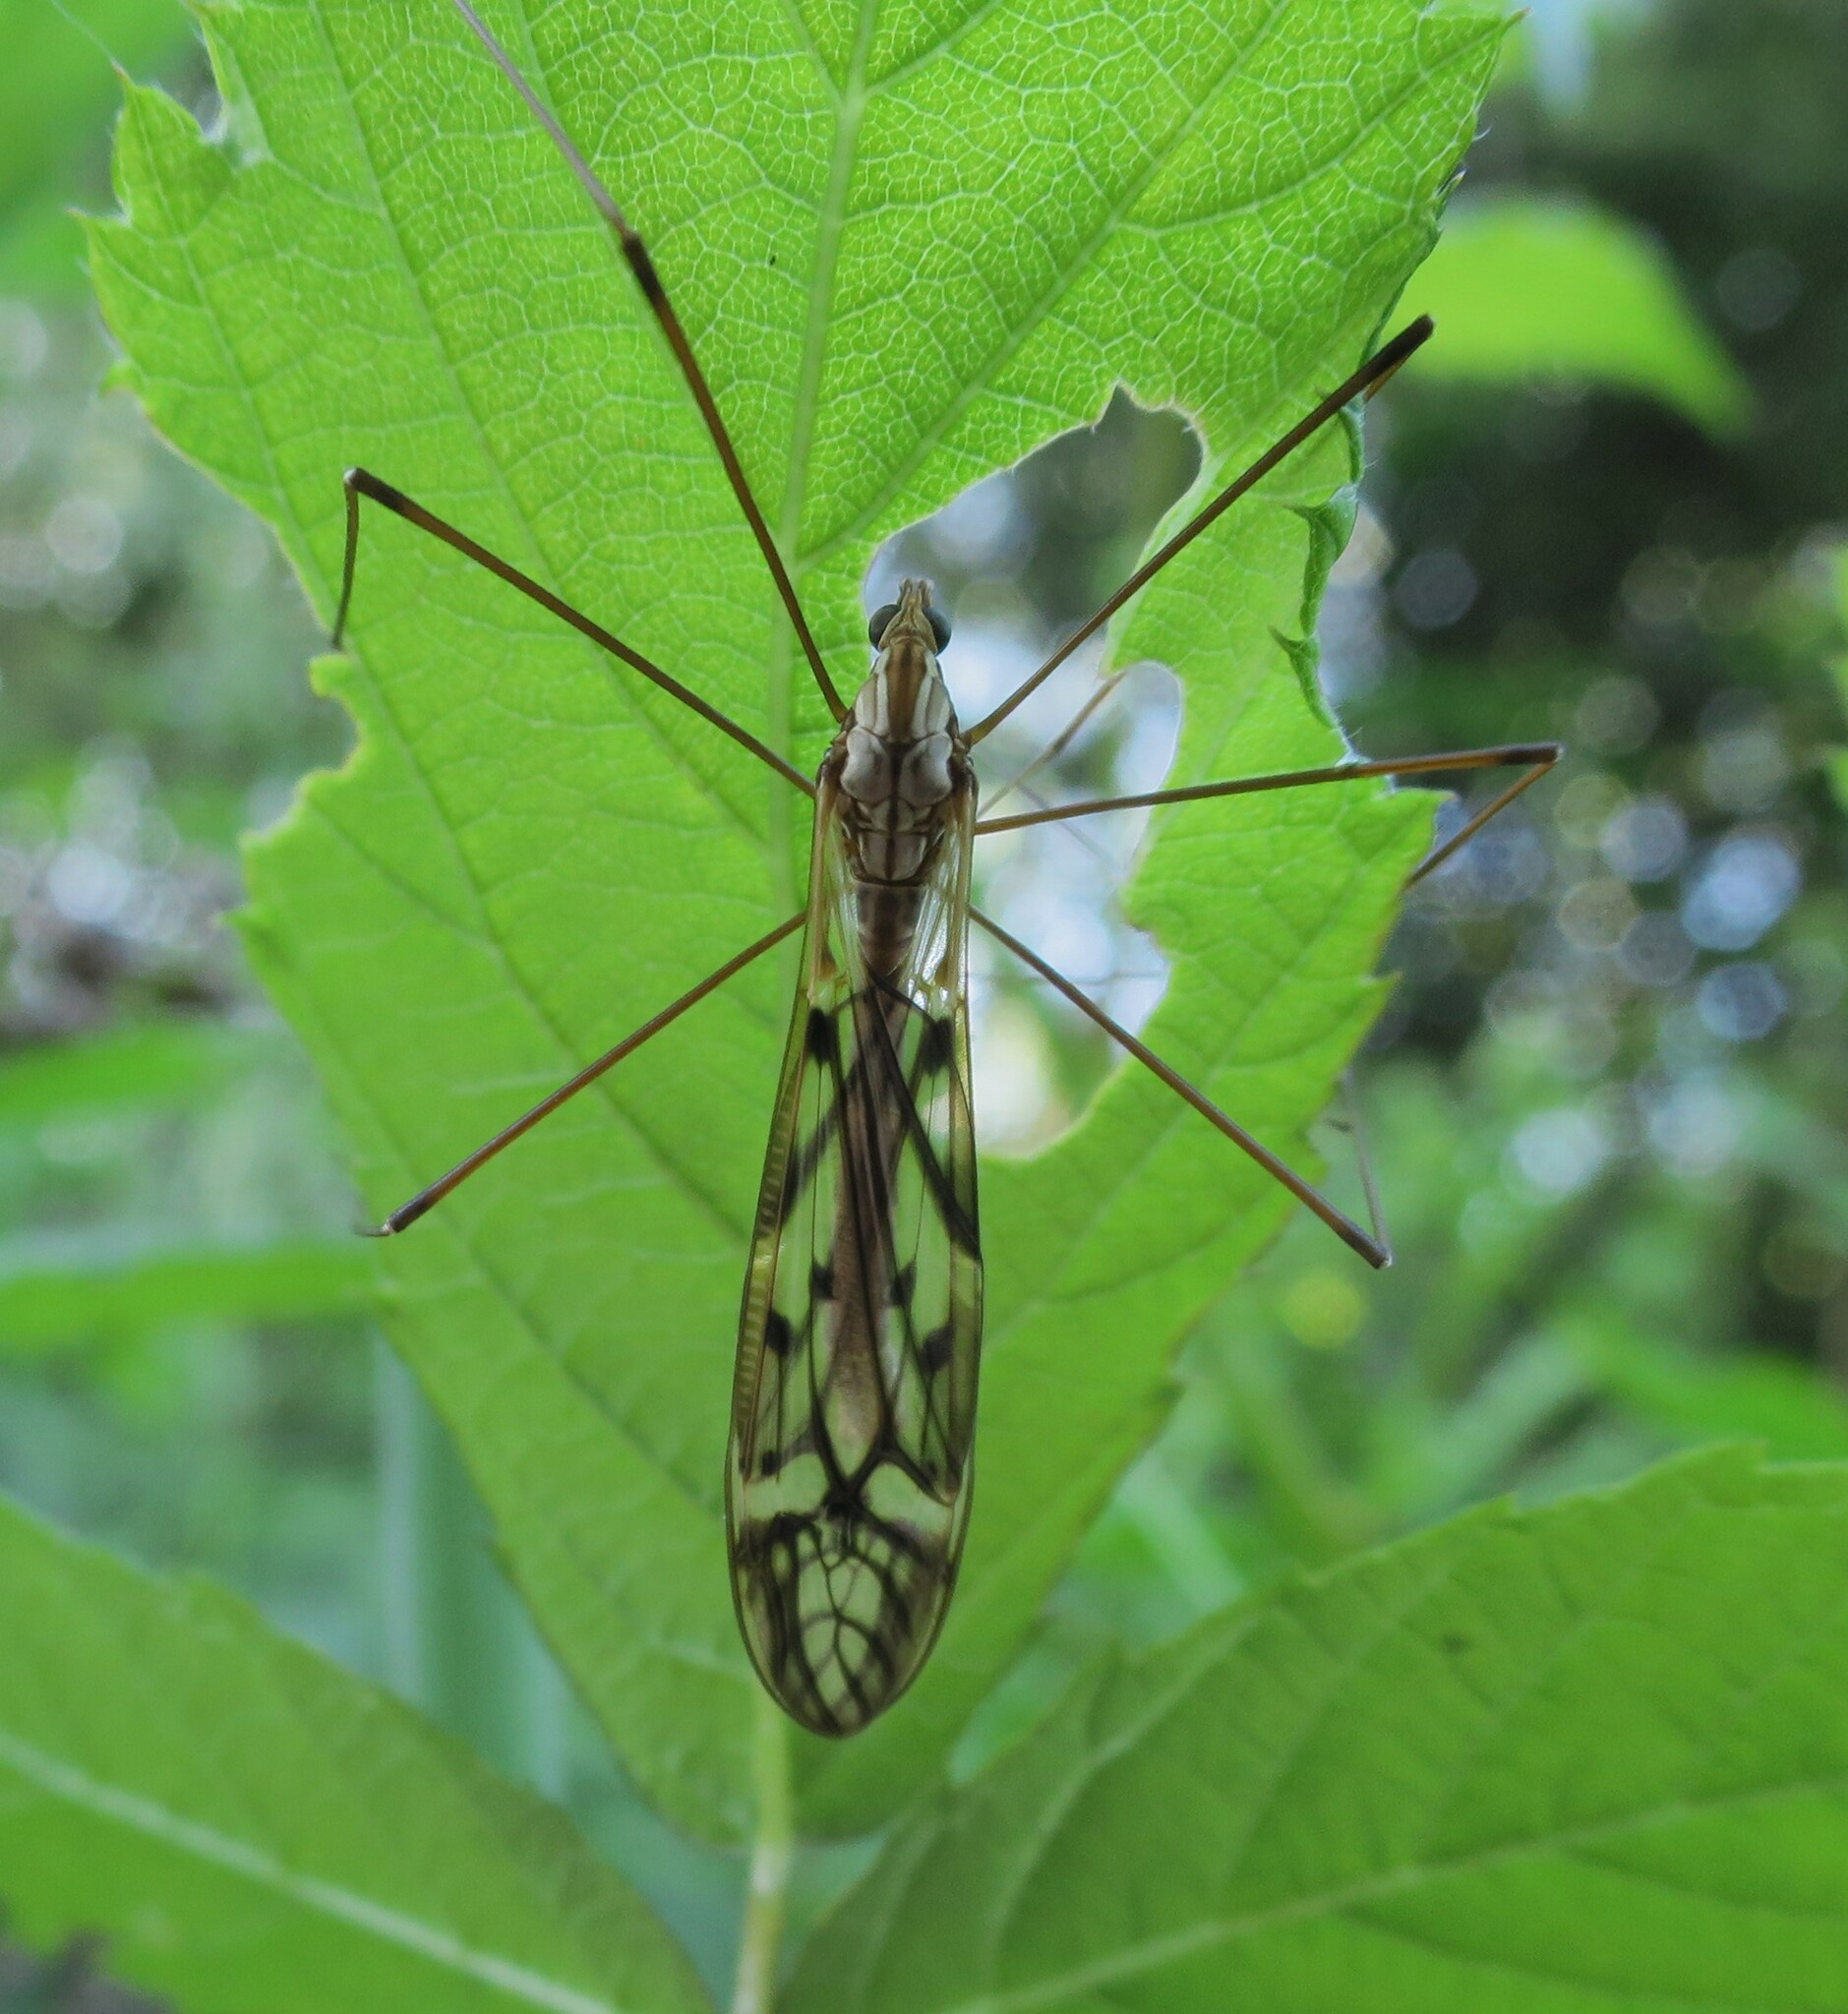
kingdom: Animalia
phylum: Arthropoda
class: Insecta
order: Diptera
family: Tipulidae
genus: Zelandotipula
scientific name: Zelandotipula novarae
